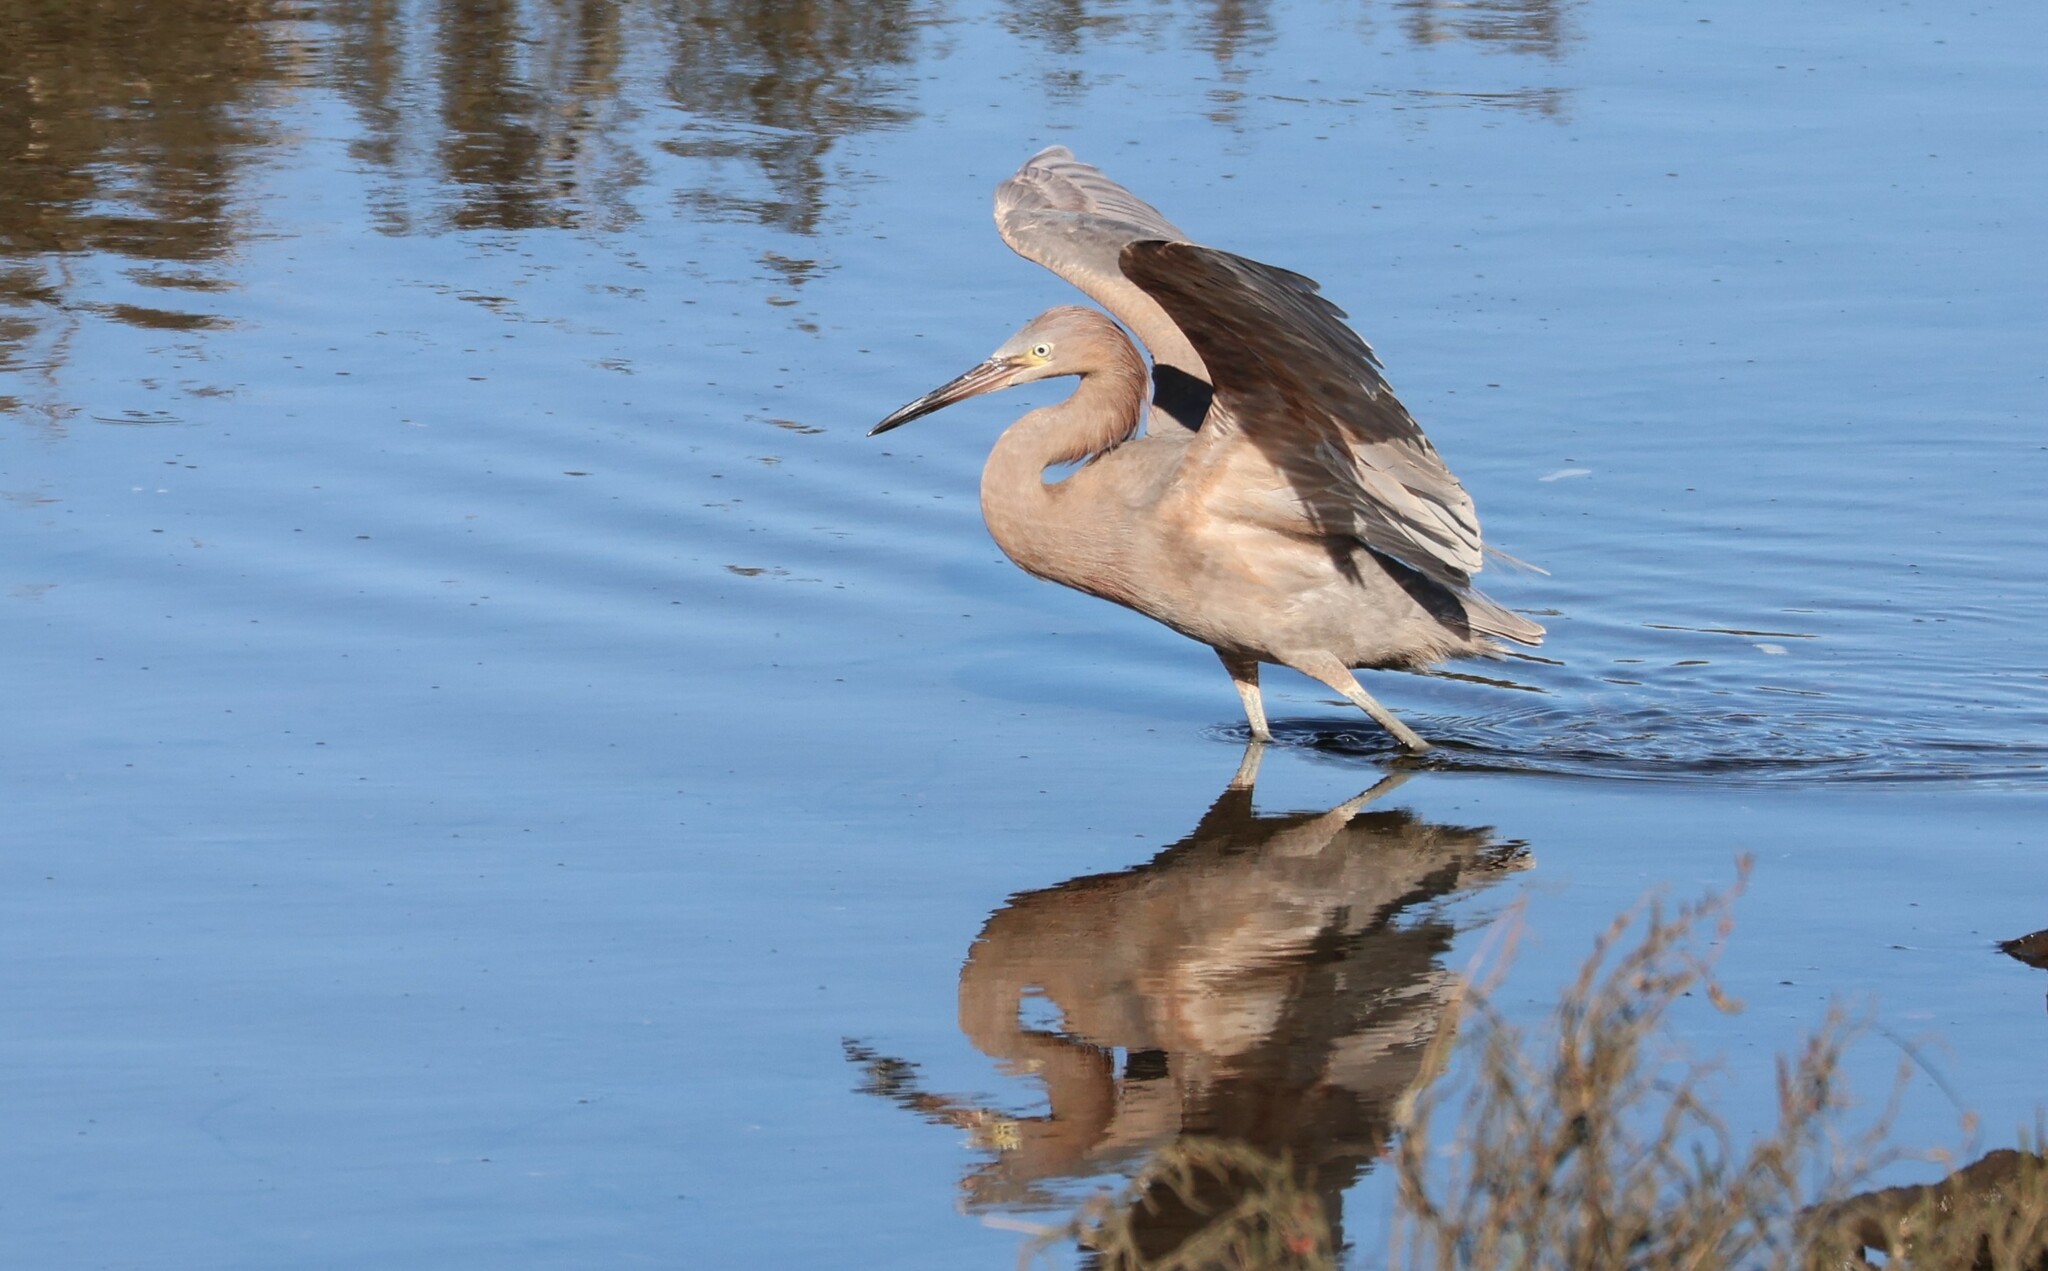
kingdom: Animalia
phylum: Chordata
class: Aves
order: Pelecaniformes
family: Ardeidae
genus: Egretta
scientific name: Egretta rufescens
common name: Reddish egret
